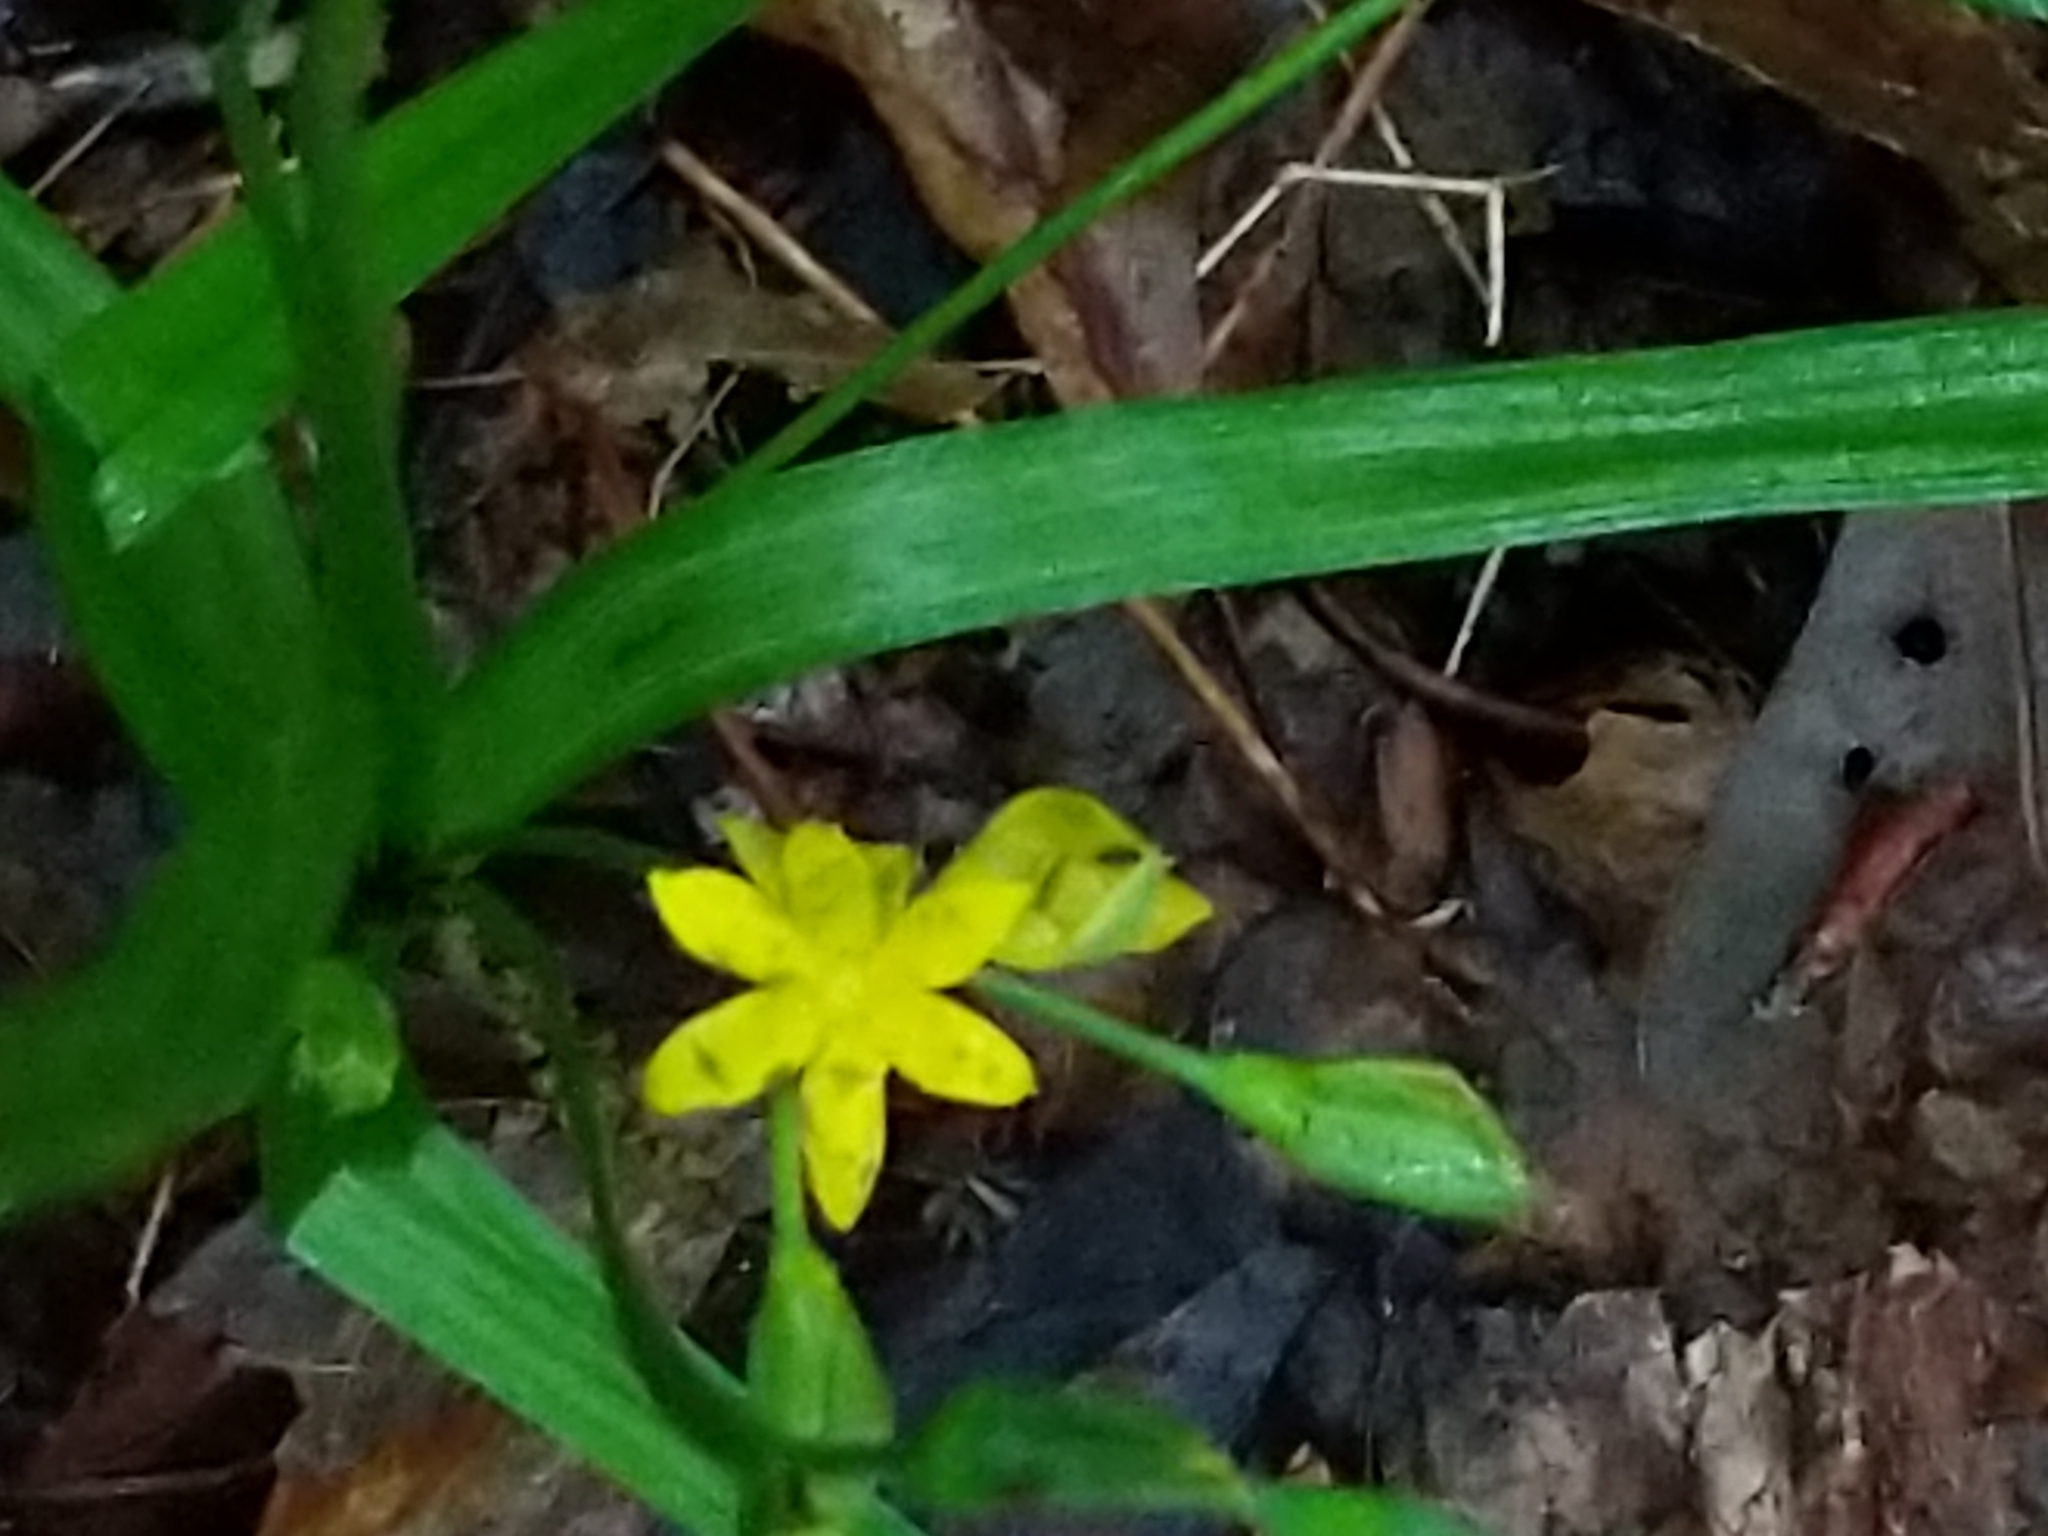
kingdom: Plantae
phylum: Tracheophyta
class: Liliopsida
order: Asparagales
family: Hypoxidaceae
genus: Hypoxis
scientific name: Hypoxis hirsuta
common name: Common goldstar
